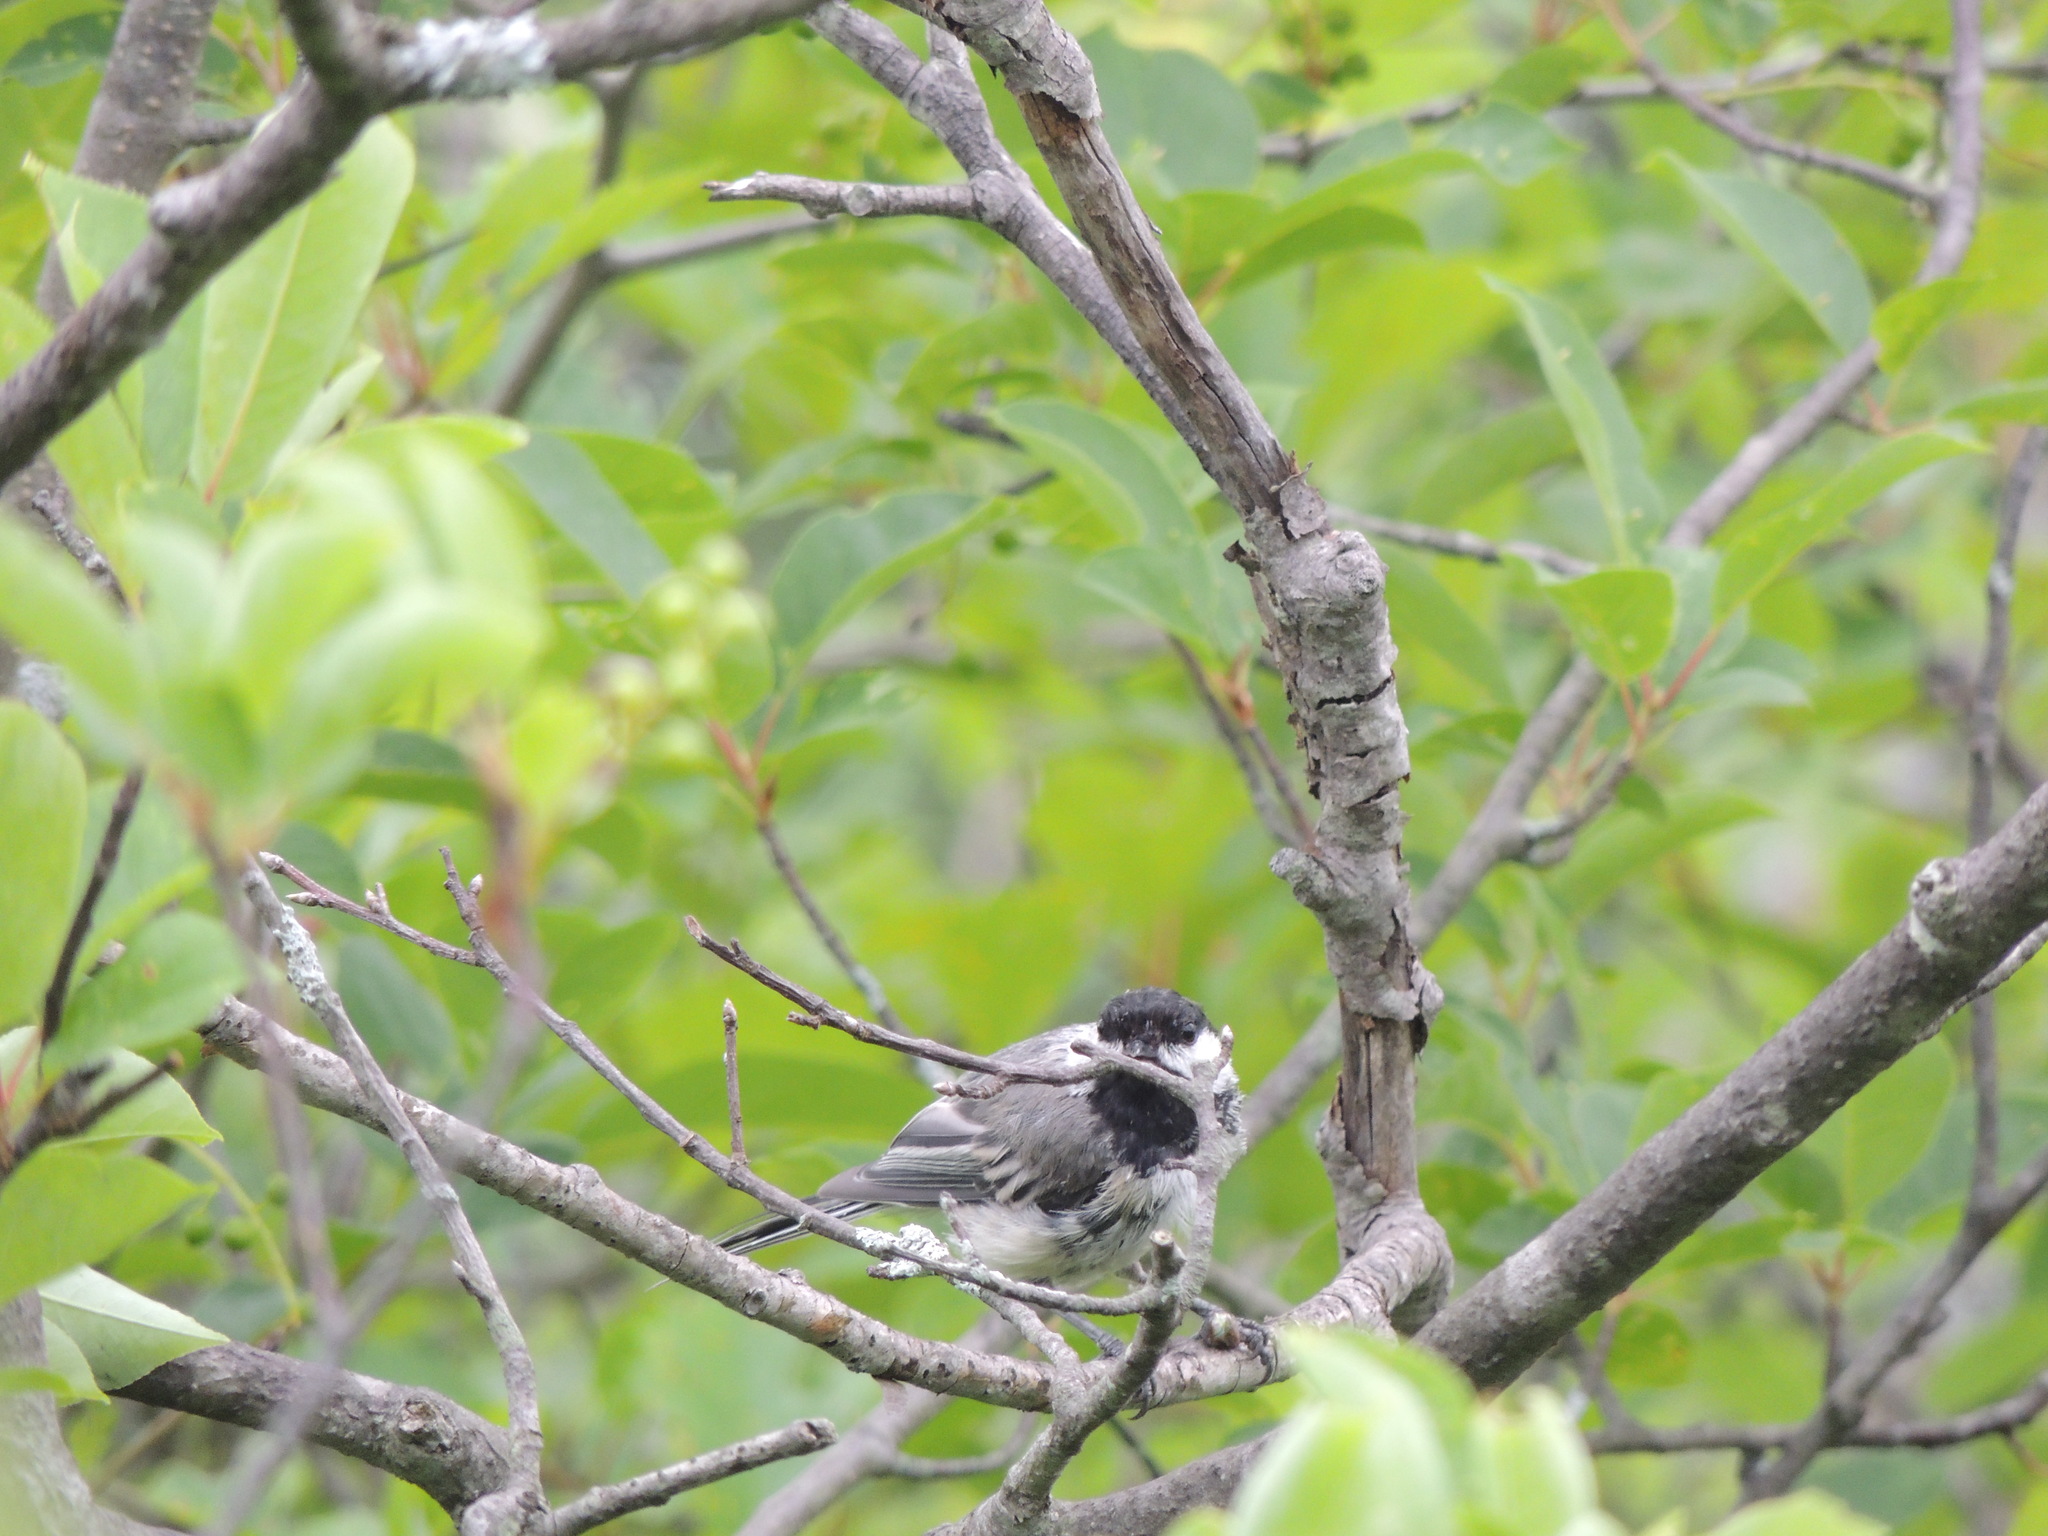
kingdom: Animalia
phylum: Chordata
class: Aves
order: Passeriformes
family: Paridae
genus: Poecile
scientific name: Poecile atricapillus
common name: Black-capped chickadee
